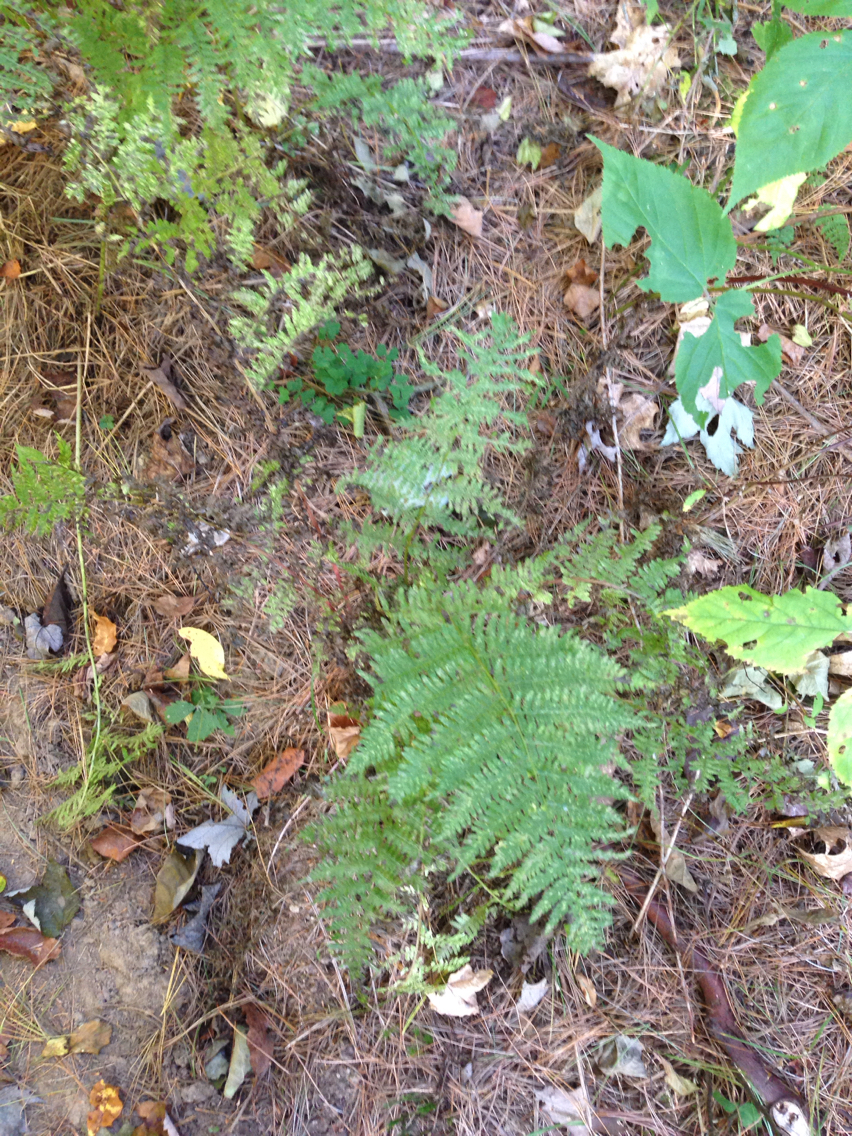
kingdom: Plantae
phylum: Tracheophyta
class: Polypodiopsida
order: Polypodiales
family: Athyriaceae
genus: Athyrium
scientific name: Athyrium angustum
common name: Northern lady fern
